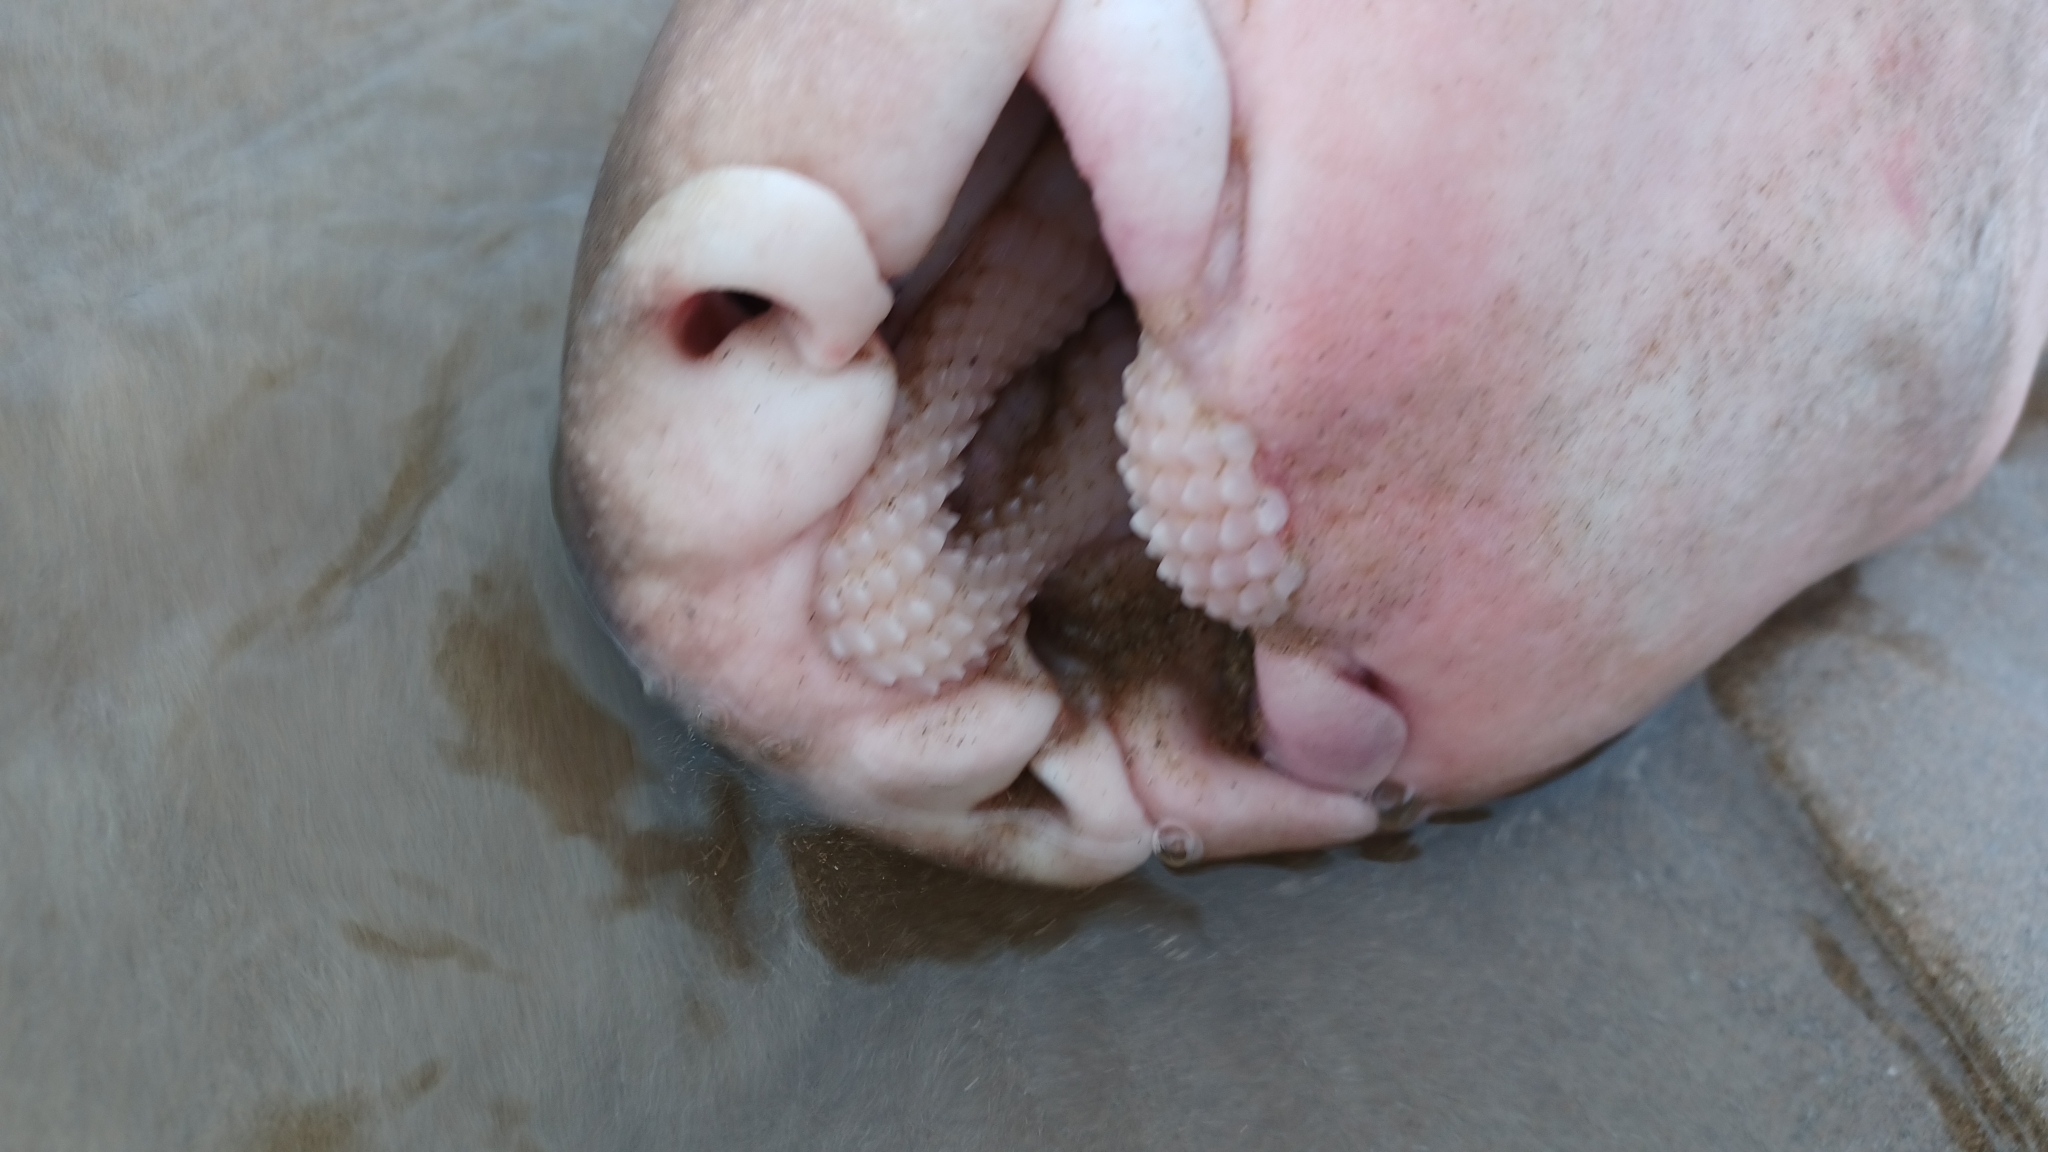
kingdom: Animalia
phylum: Chordata
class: Elasmobranchii
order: Heterodontiformes
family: Heterodontidae
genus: Heterodontus
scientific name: Heterodontus portusjacksoni
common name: Port jackson shark
